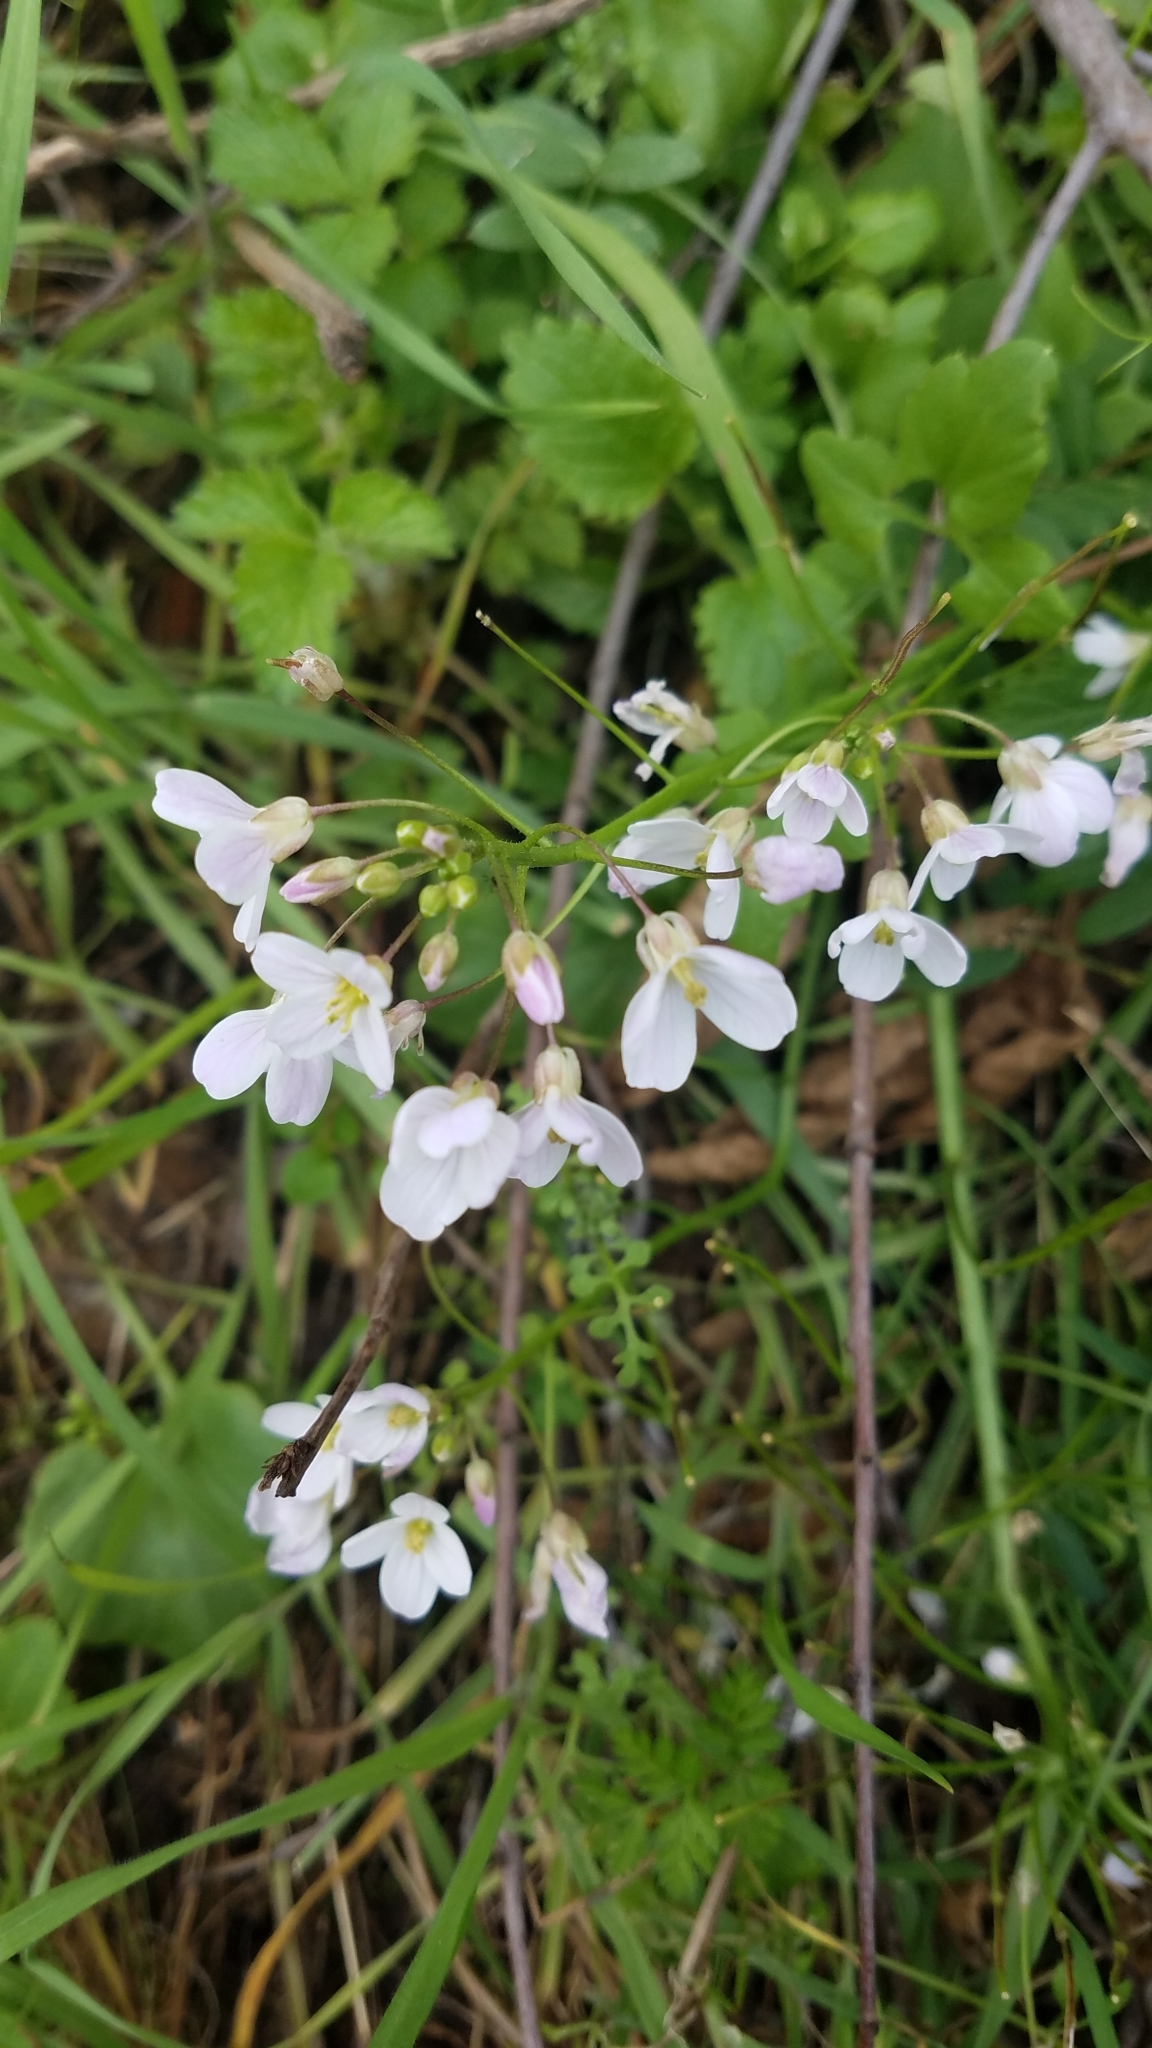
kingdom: Plantae
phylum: Tracheophyta
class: Magnoliopsida
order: Brassicales
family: Brassicaceae
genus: Cardamine
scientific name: Cardamine californica
